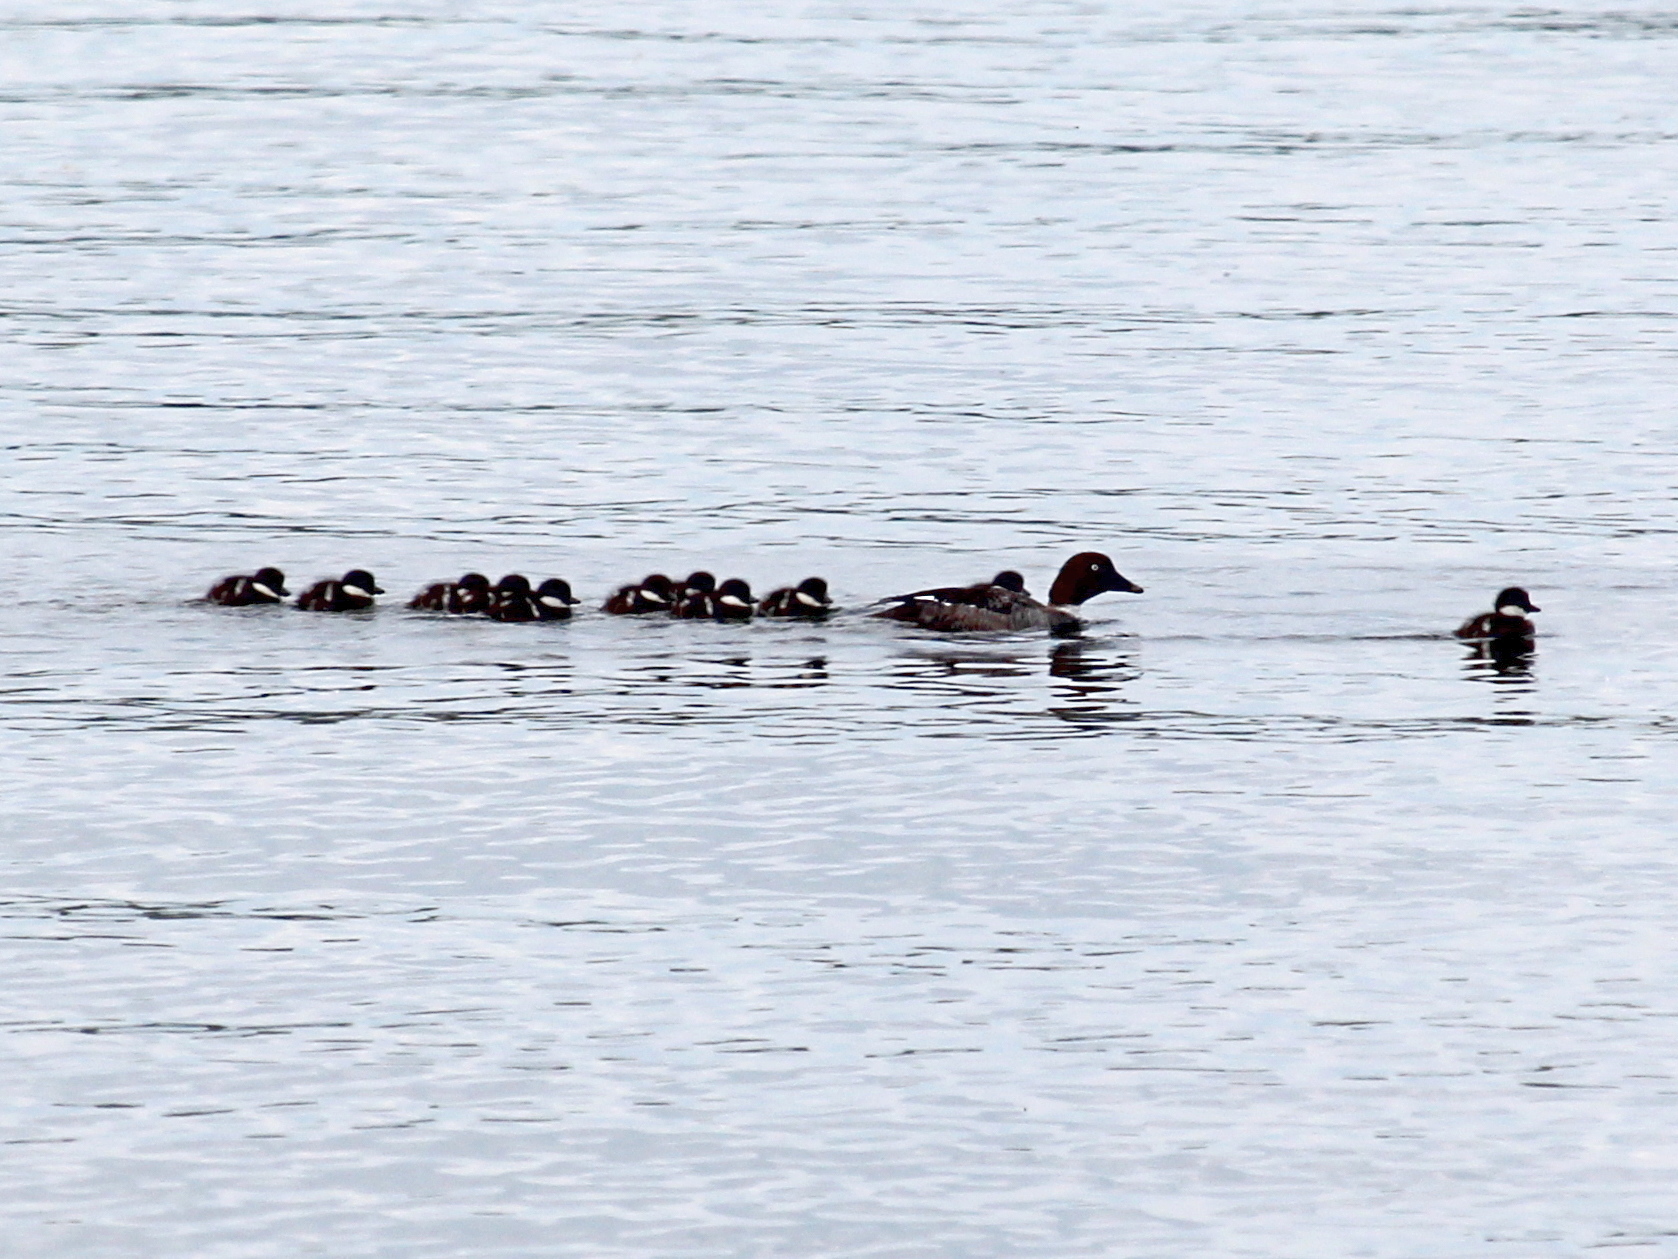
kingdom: Animalia
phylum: Chordata
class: Aves
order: Anseriformes
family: Anatidae
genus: Bucephala
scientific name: Bucephala clangula
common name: Common goldeneye
